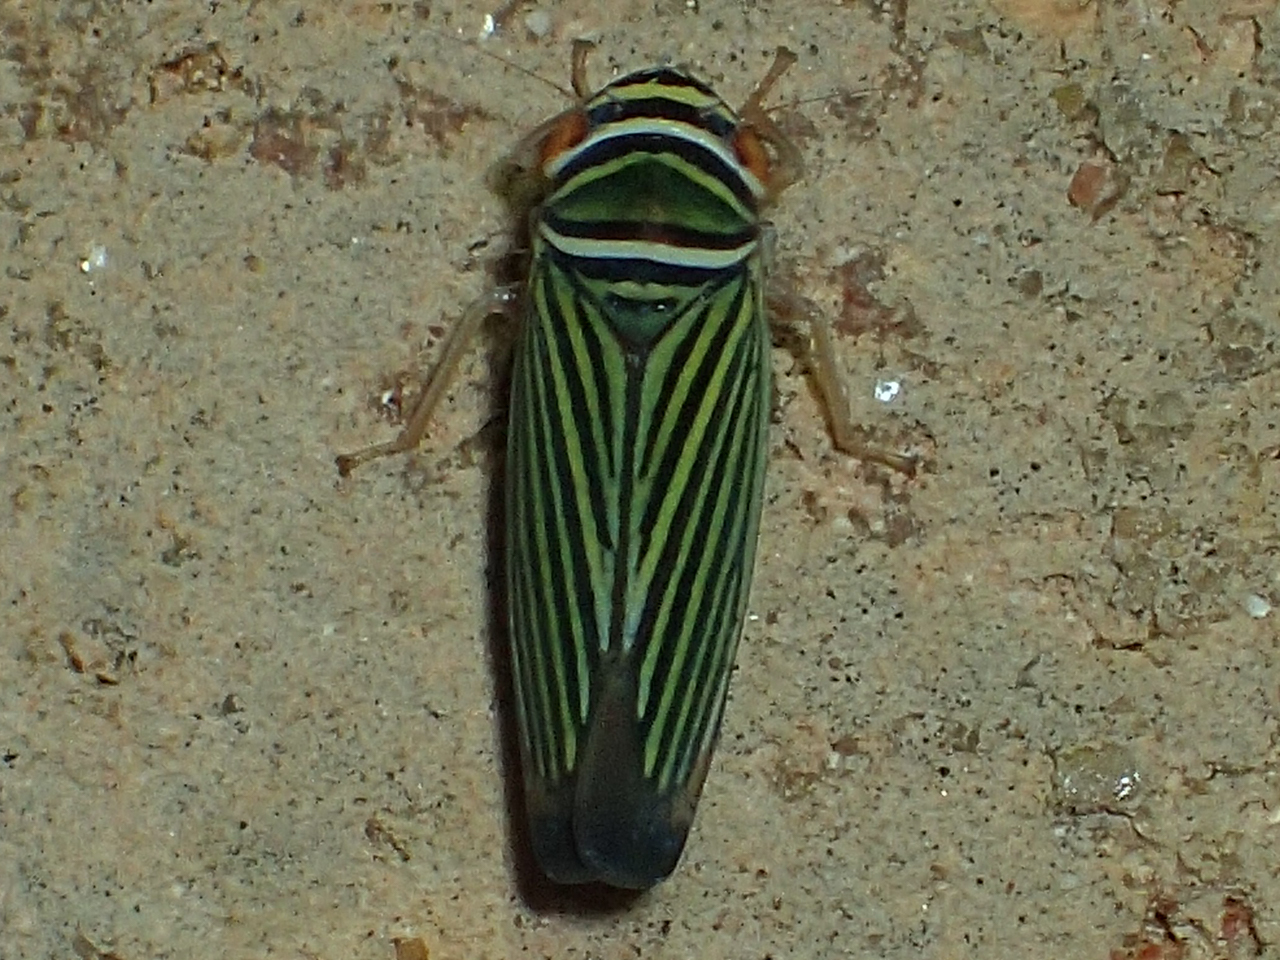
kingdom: Animalia
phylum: Arthropoda
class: Insecta
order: Hemiptera
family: Cicadellidae
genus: Tylozygus
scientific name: Tylozygus bifidus
